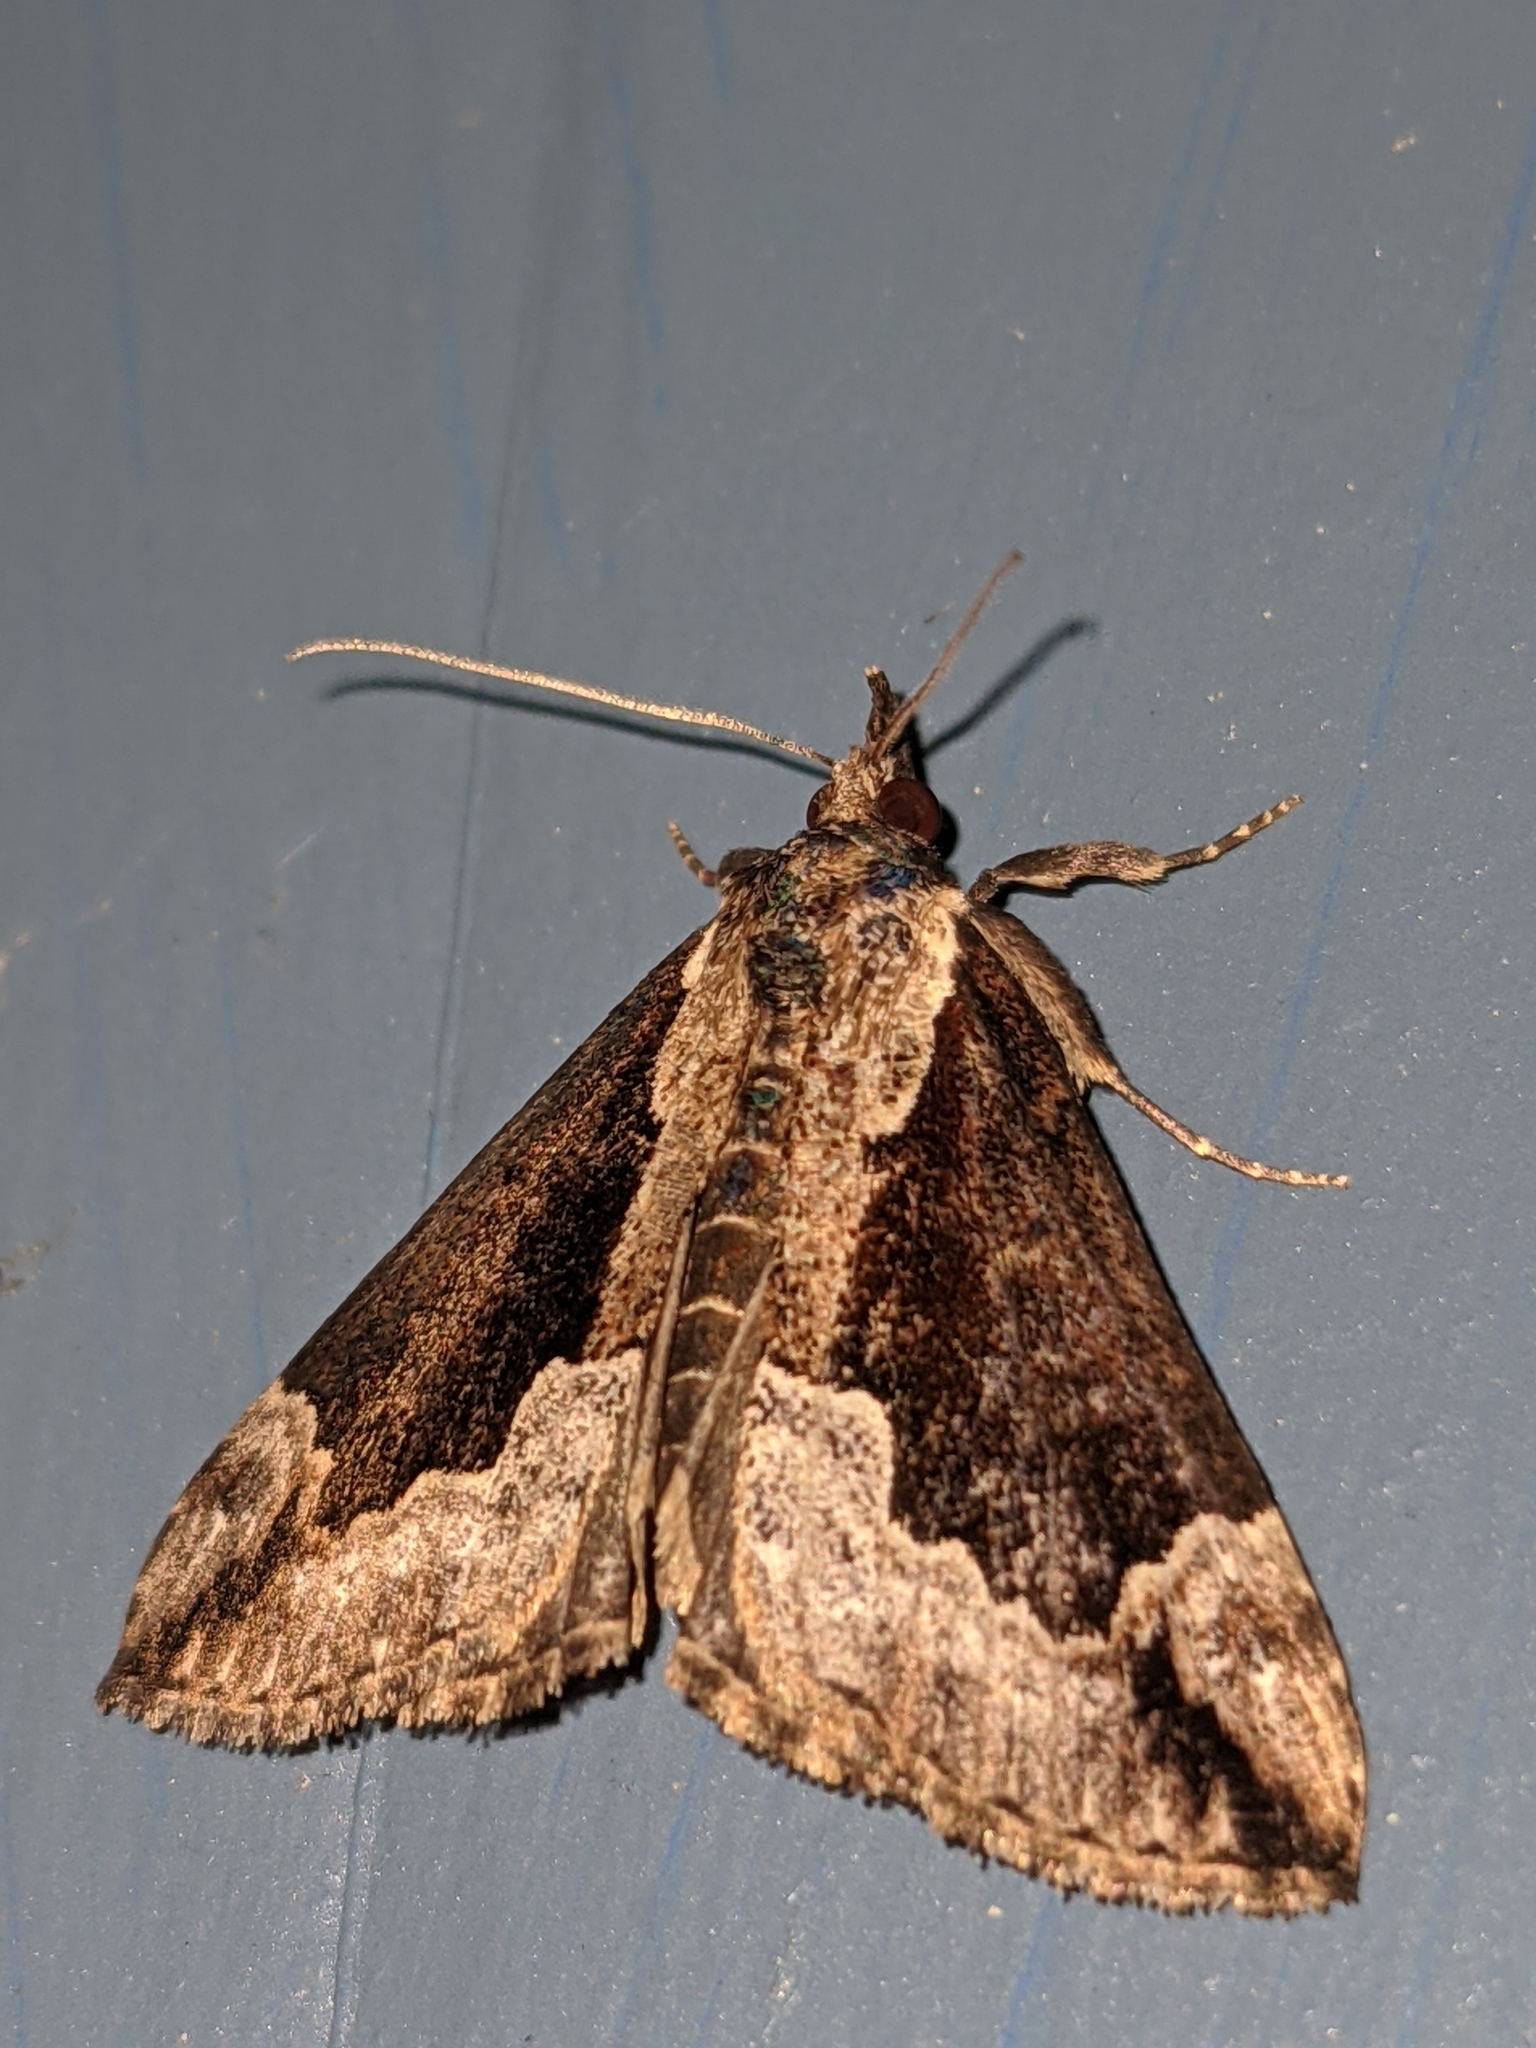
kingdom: Animalia
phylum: Arthropoda
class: Insecta
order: Lepidoptera
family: Erebidae
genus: Hypena
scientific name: Hypena baltimoralis
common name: Baltimore snout
